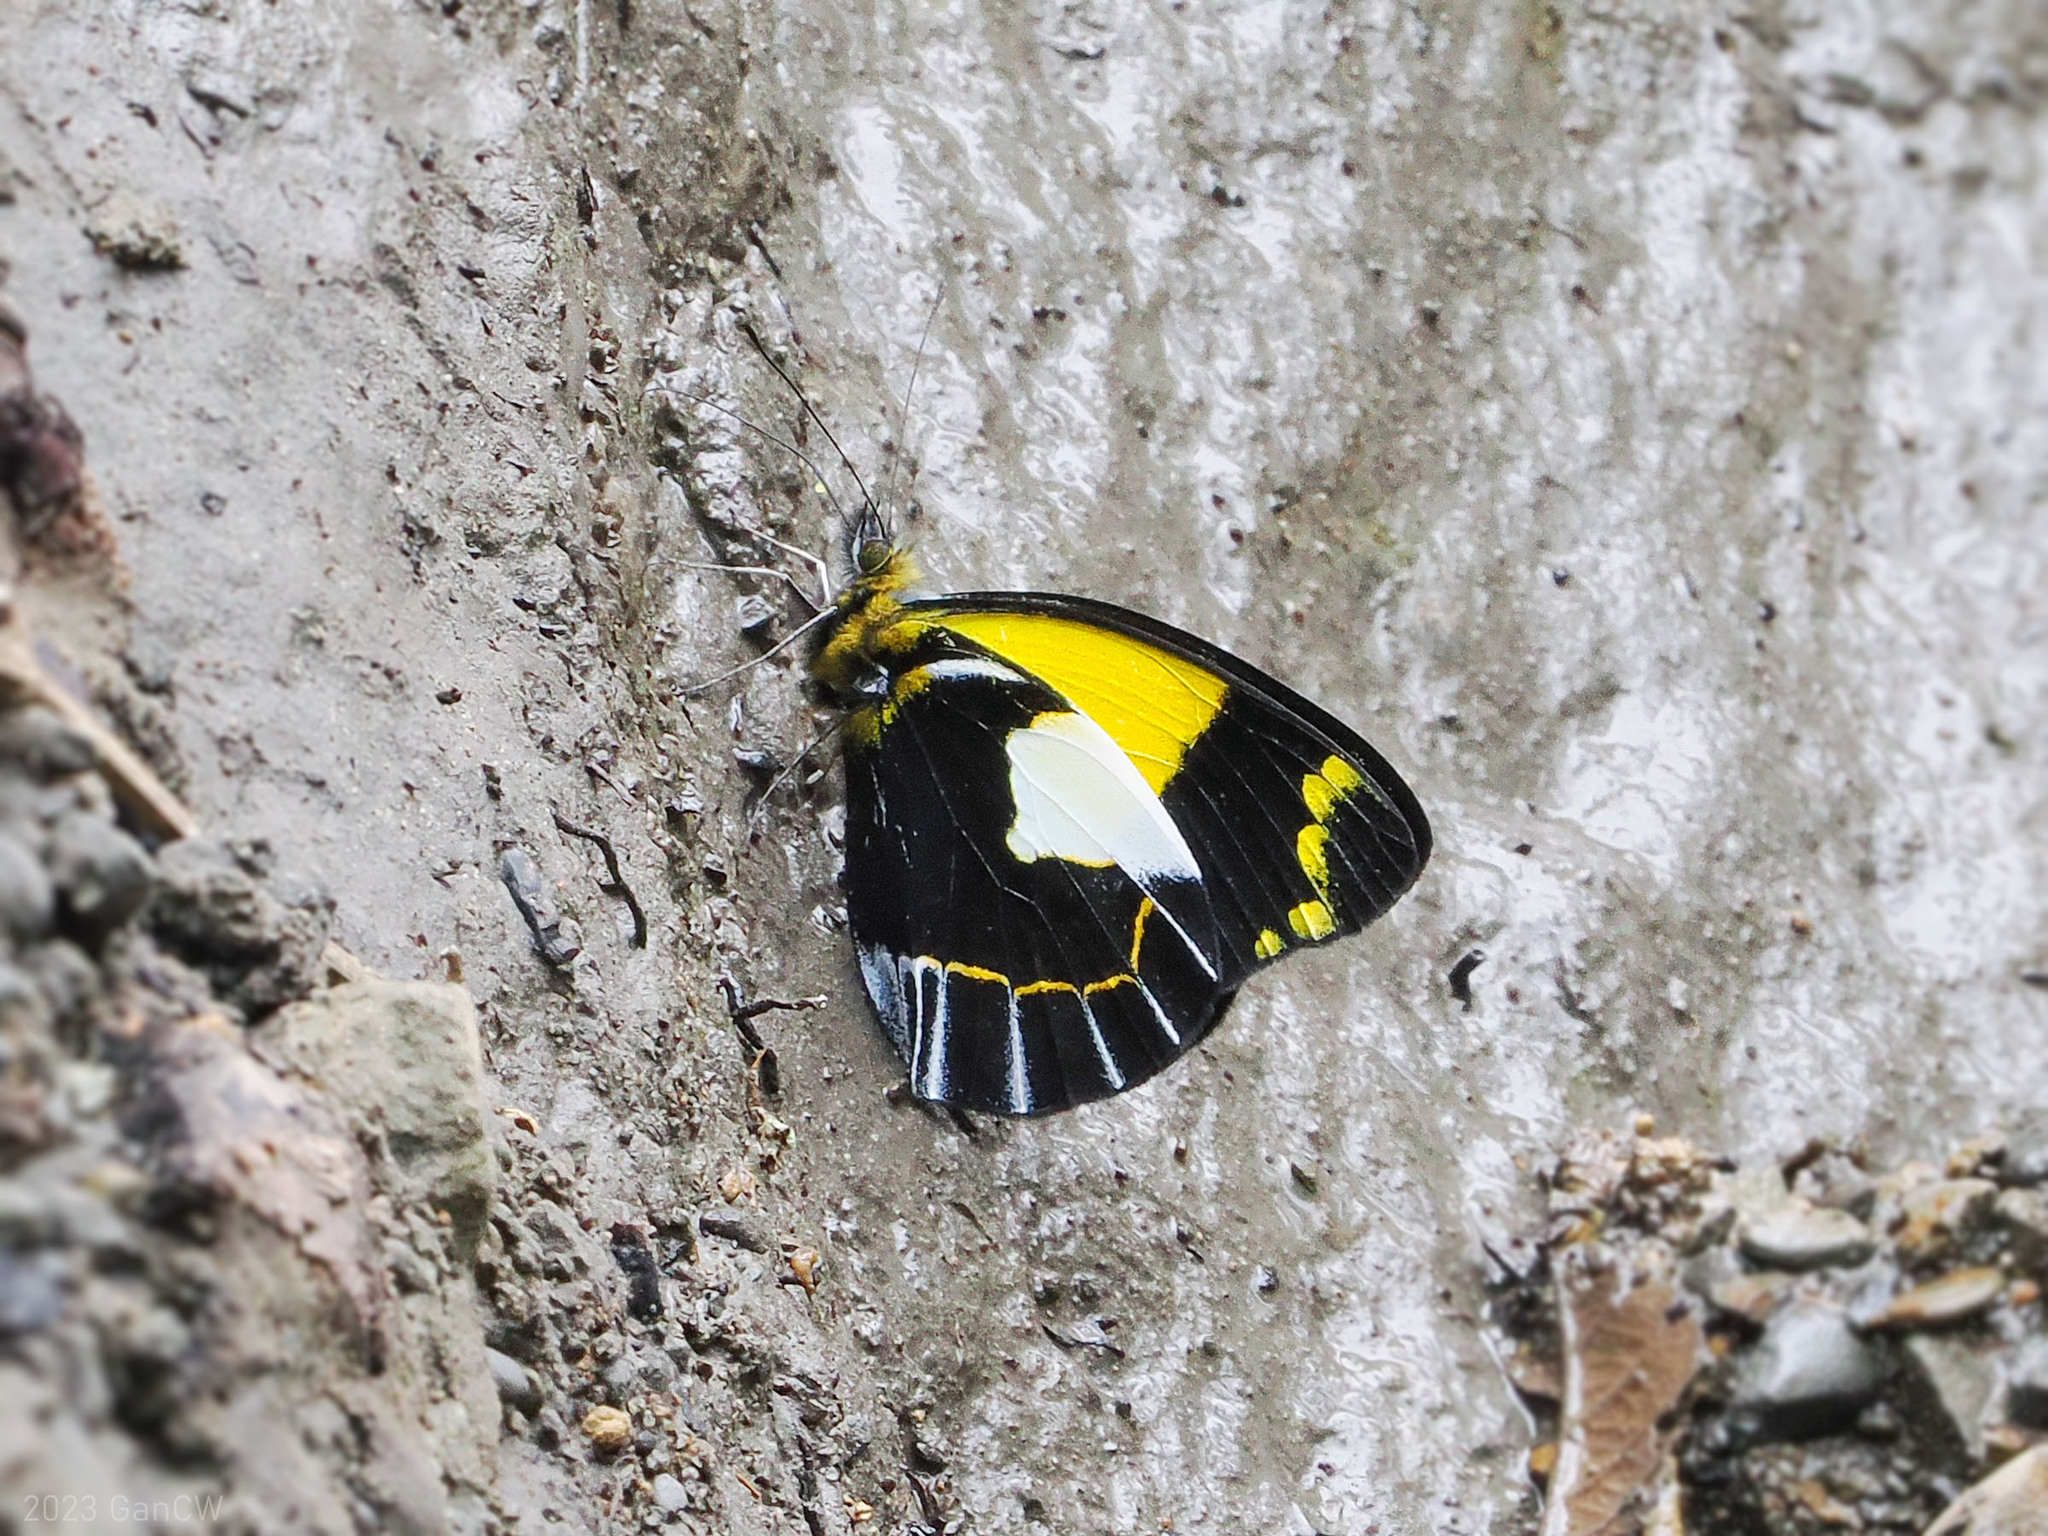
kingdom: Animalia
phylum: Arthropoda
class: Insecta
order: Lepidoptera
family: Pieridae
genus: Delias
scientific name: Delias neagra
